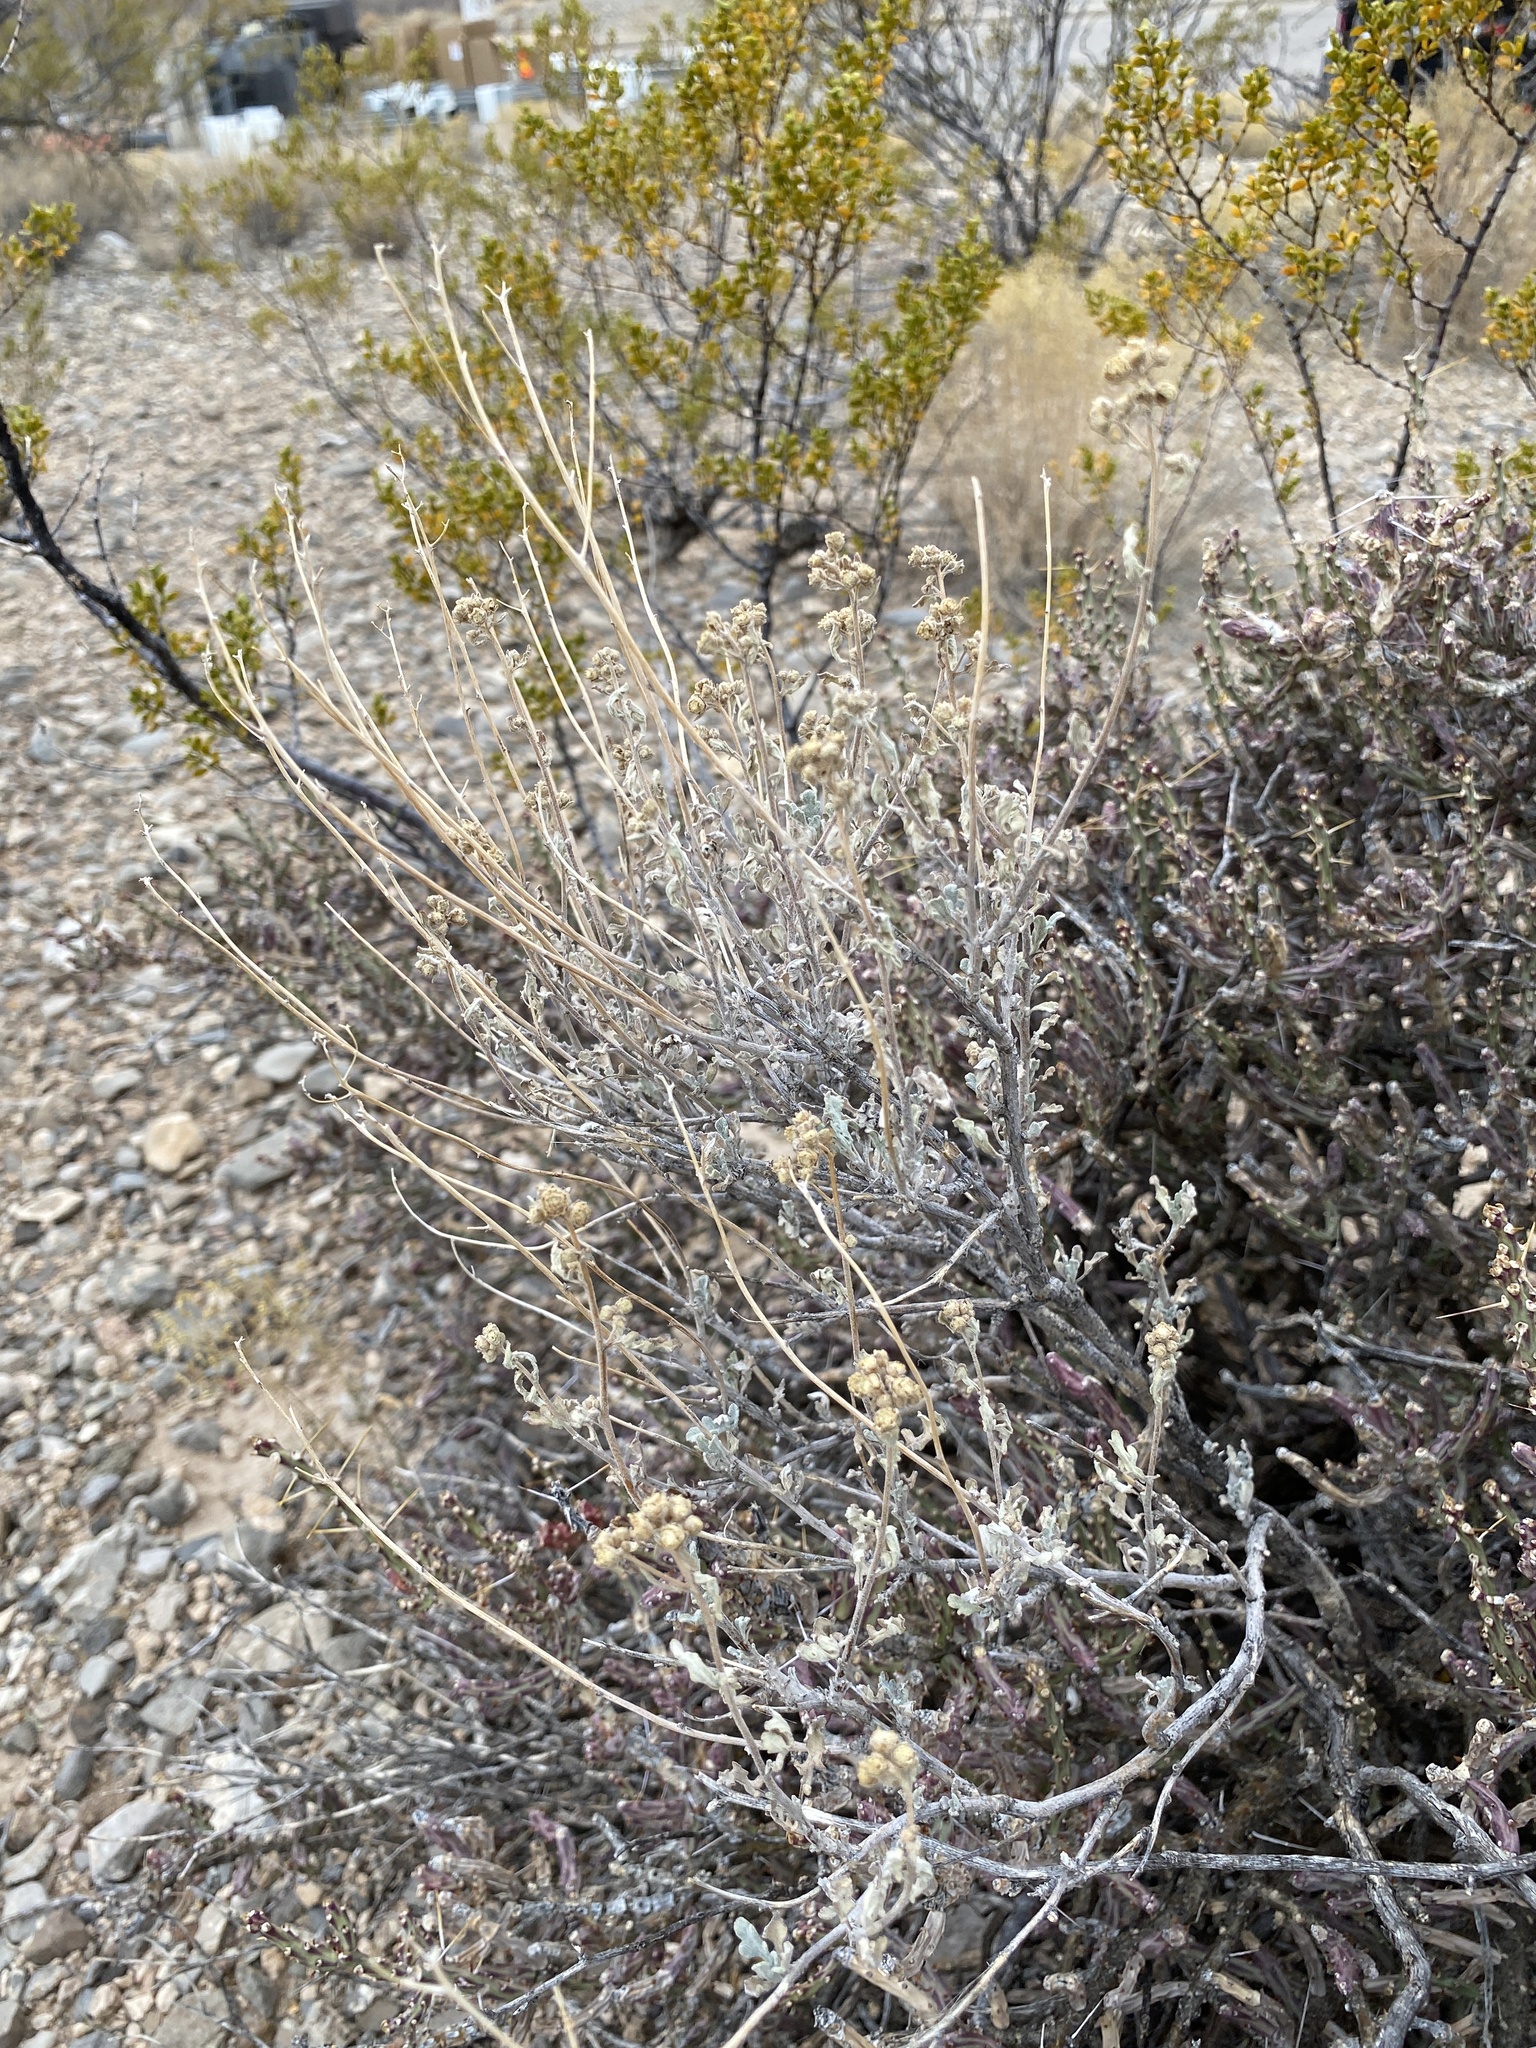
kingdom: Plantae
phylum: Tracheophyta
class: Magnoliopsida
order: Asterales
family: Asteraceae
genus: Parthenium
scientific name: Parthenium incanum
